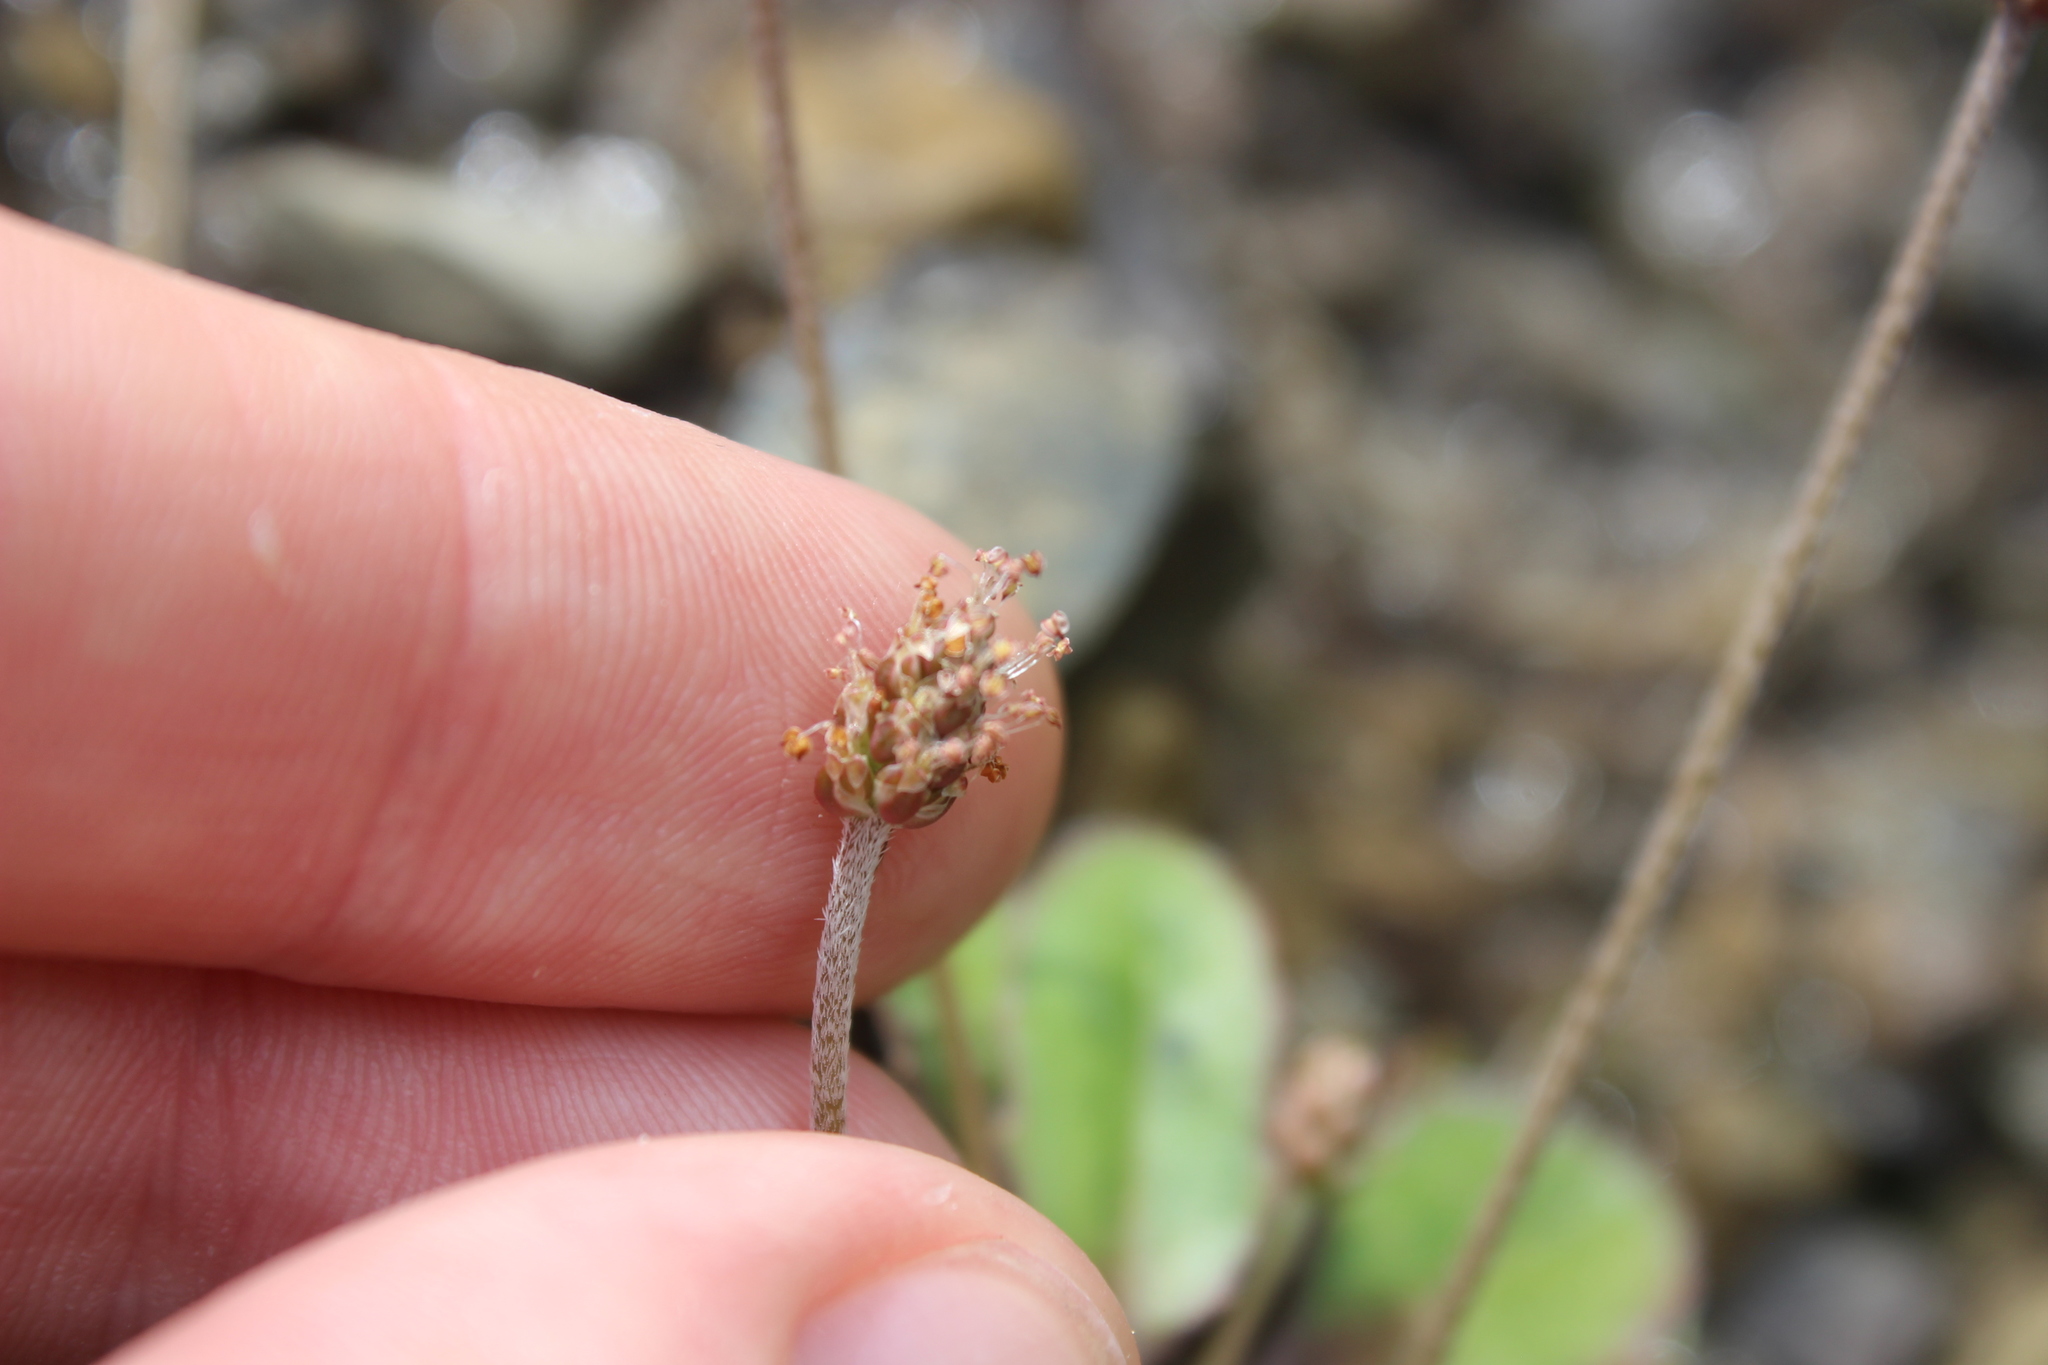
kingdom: Plantae
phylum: Tracheophyta
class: Magnoliopsida
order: Lamiales
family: Plantaginaceae
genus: Plantago
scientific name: Plantago raoulii
